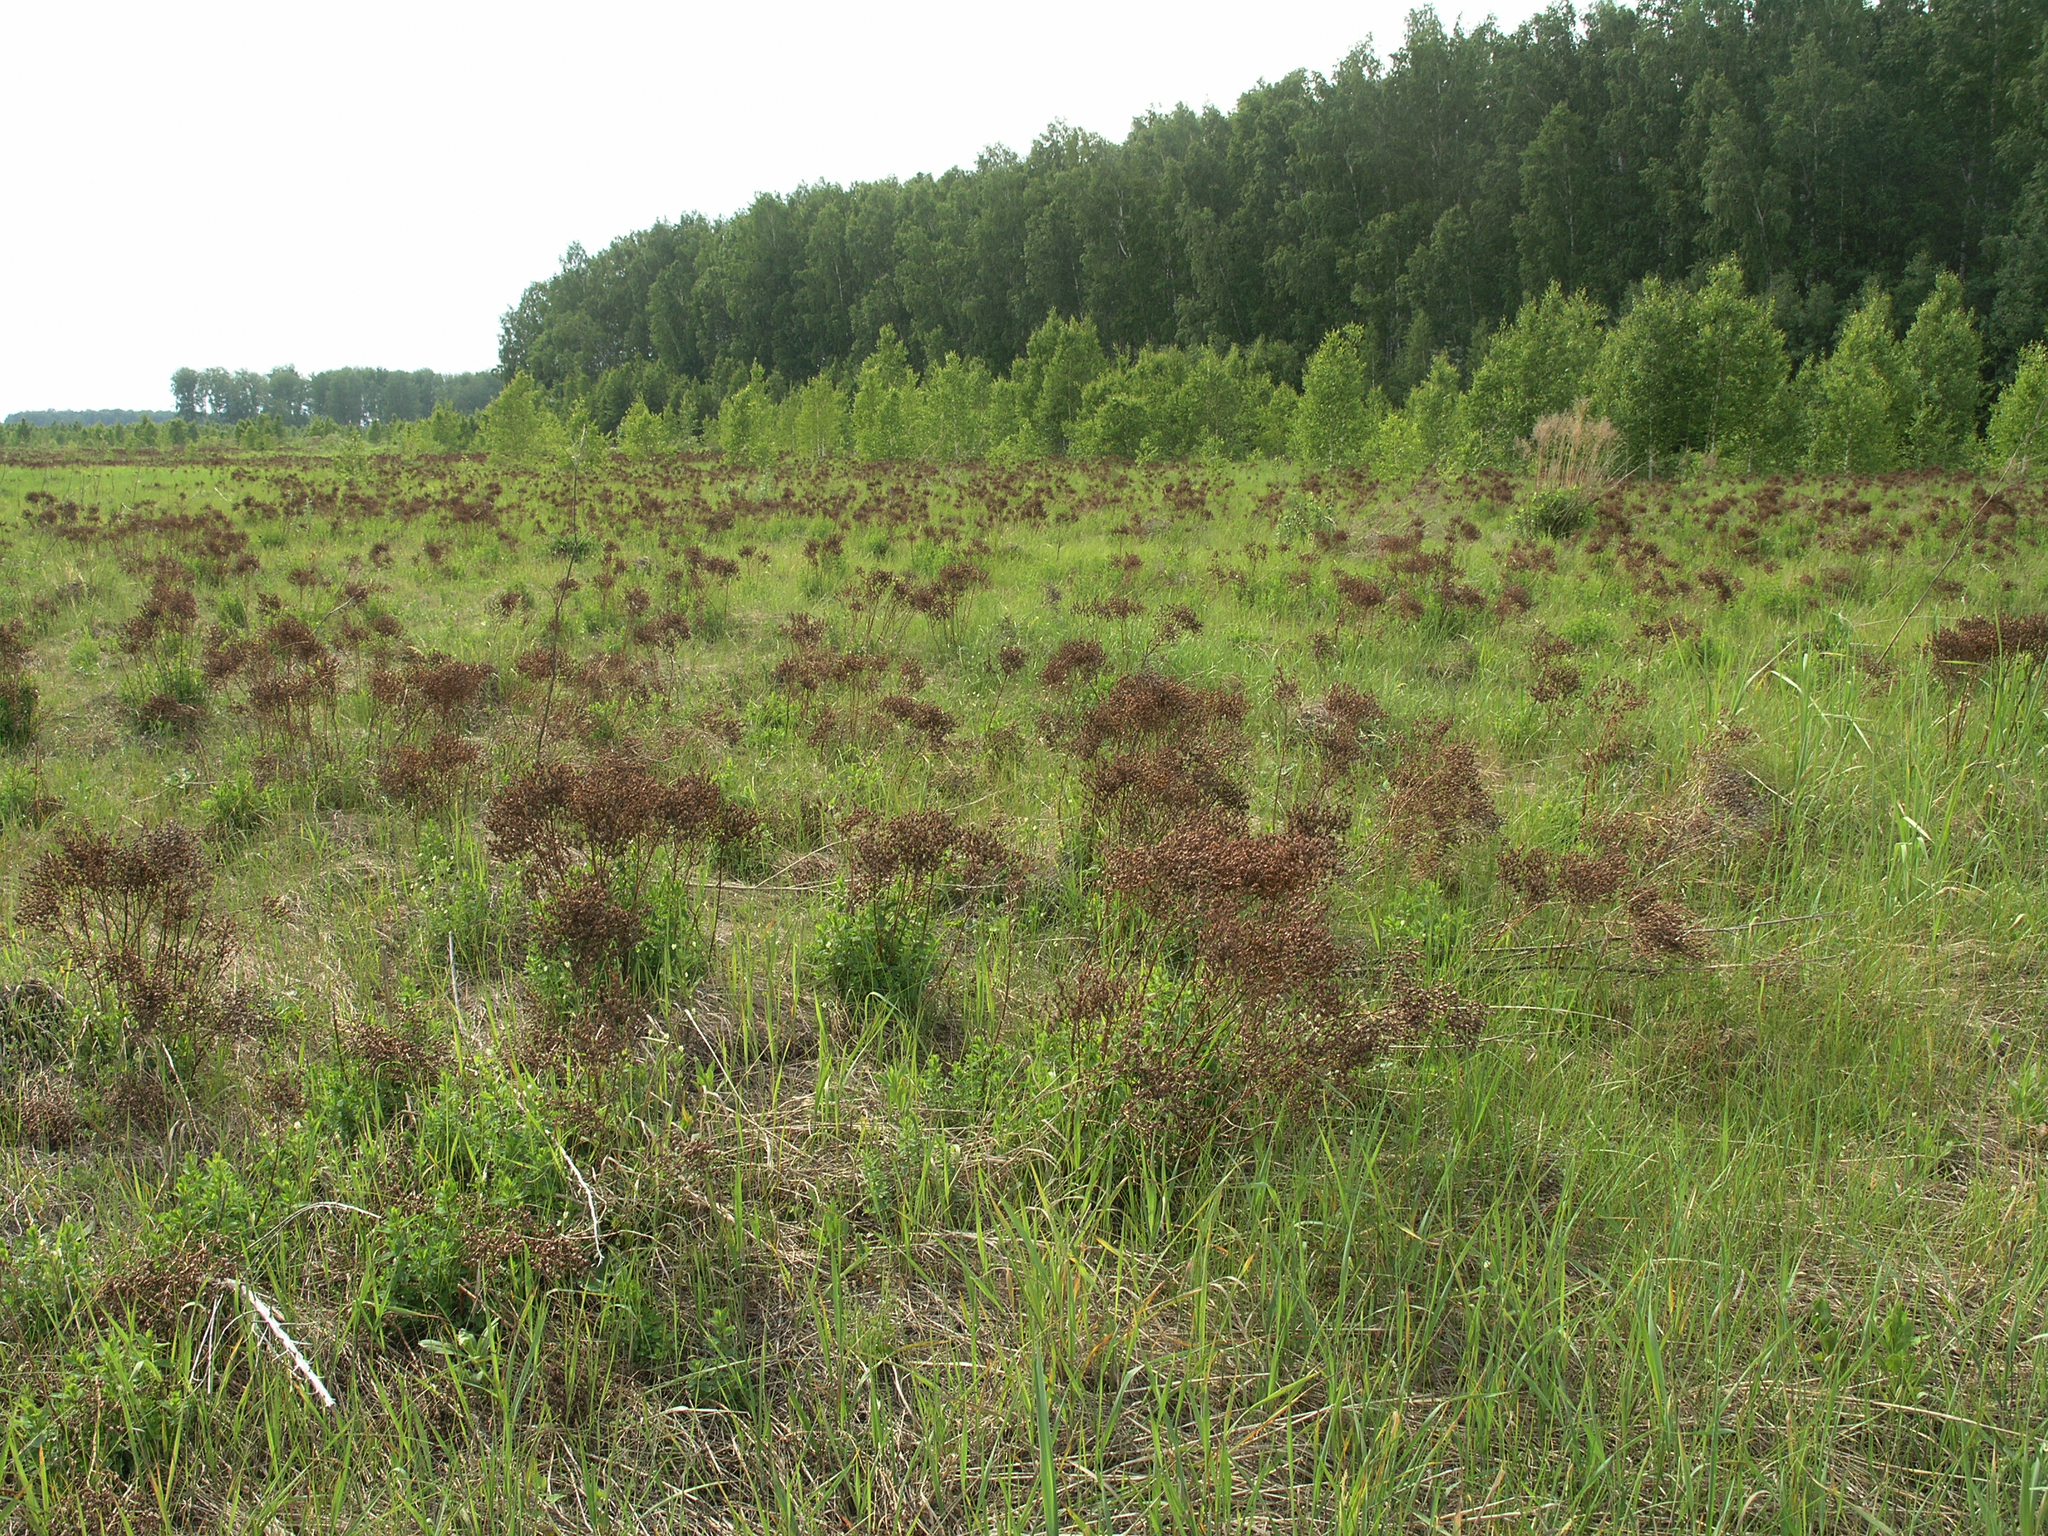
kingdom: Plantae
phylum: Tracheophyta
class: Magnoliopsida
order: Malpighiales
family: Hypericaceae
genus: Hypericum
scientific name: Hypericum perforatum
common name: Common st. johnswort
